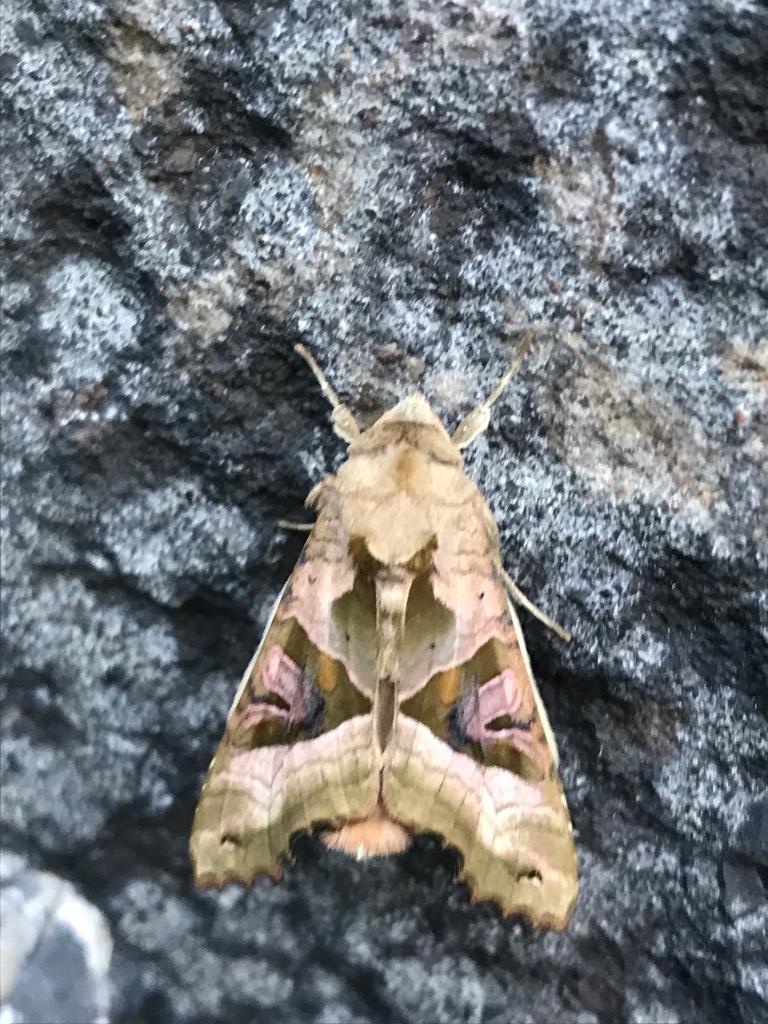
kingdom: Animalia
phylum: Arthropoda
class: Insecta
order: Lepidoptera
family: Noctuidae
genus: Phlogophora
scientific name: Phlogophora meticulosa
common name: Angle shades
